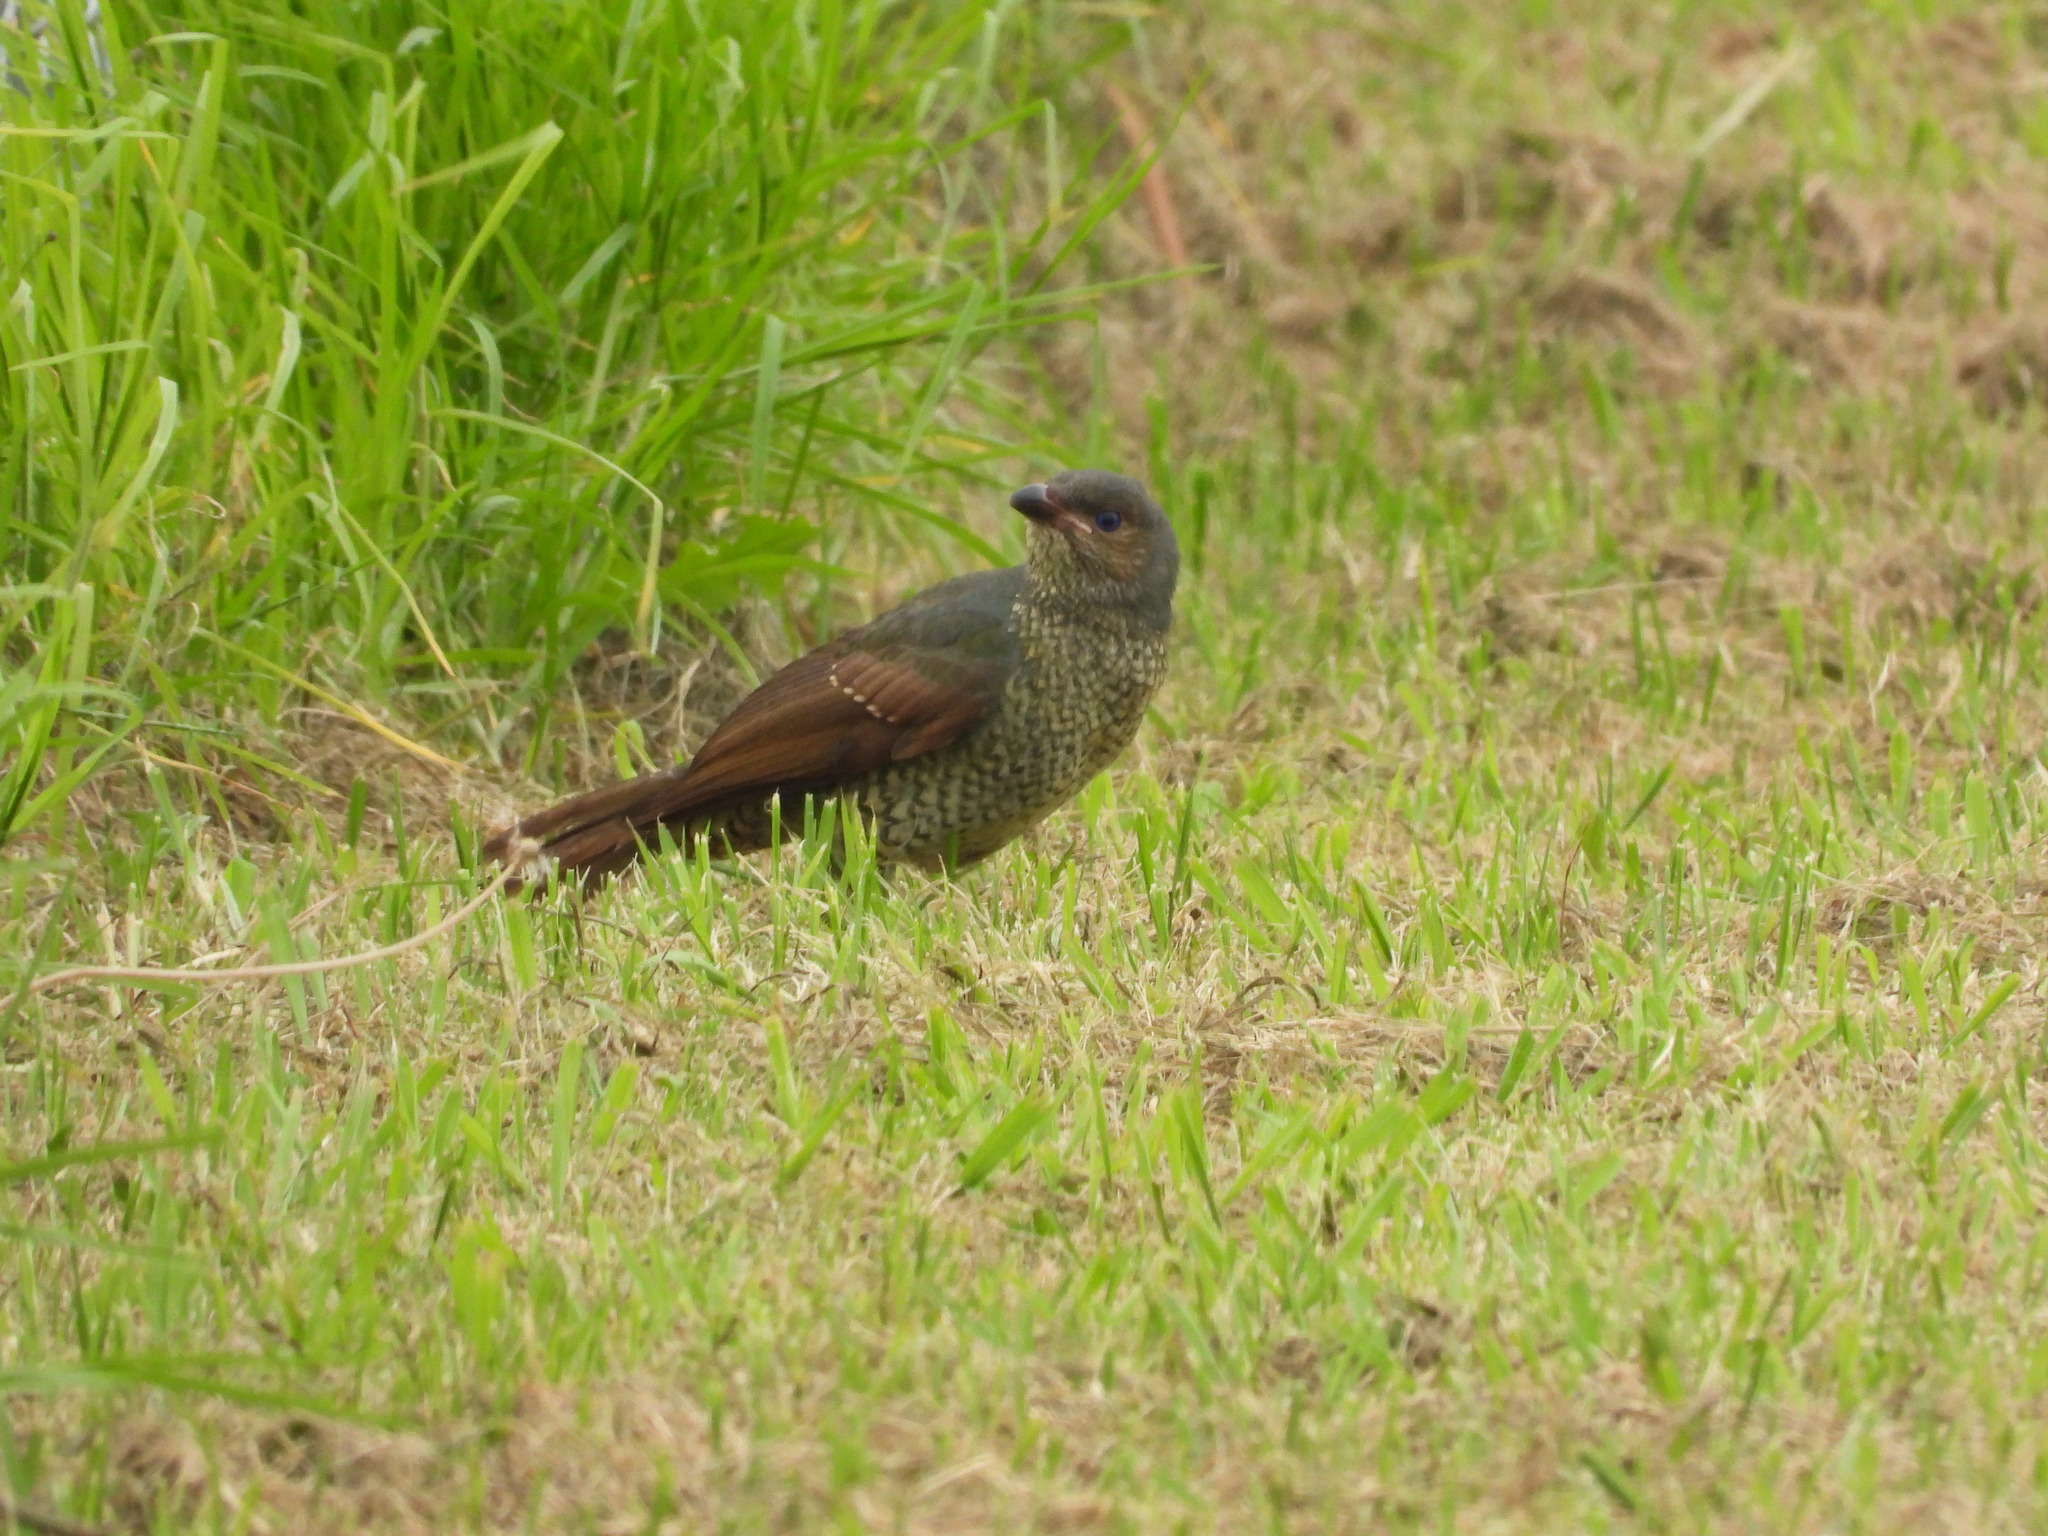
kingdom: Animalia
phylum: Chordata
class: Aves
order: Passeriformes
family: Ptilonorhynchidae
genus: Ptilonorhynchus
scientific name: Ptilonorhynchus violaceus
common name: Satin bowerbird
